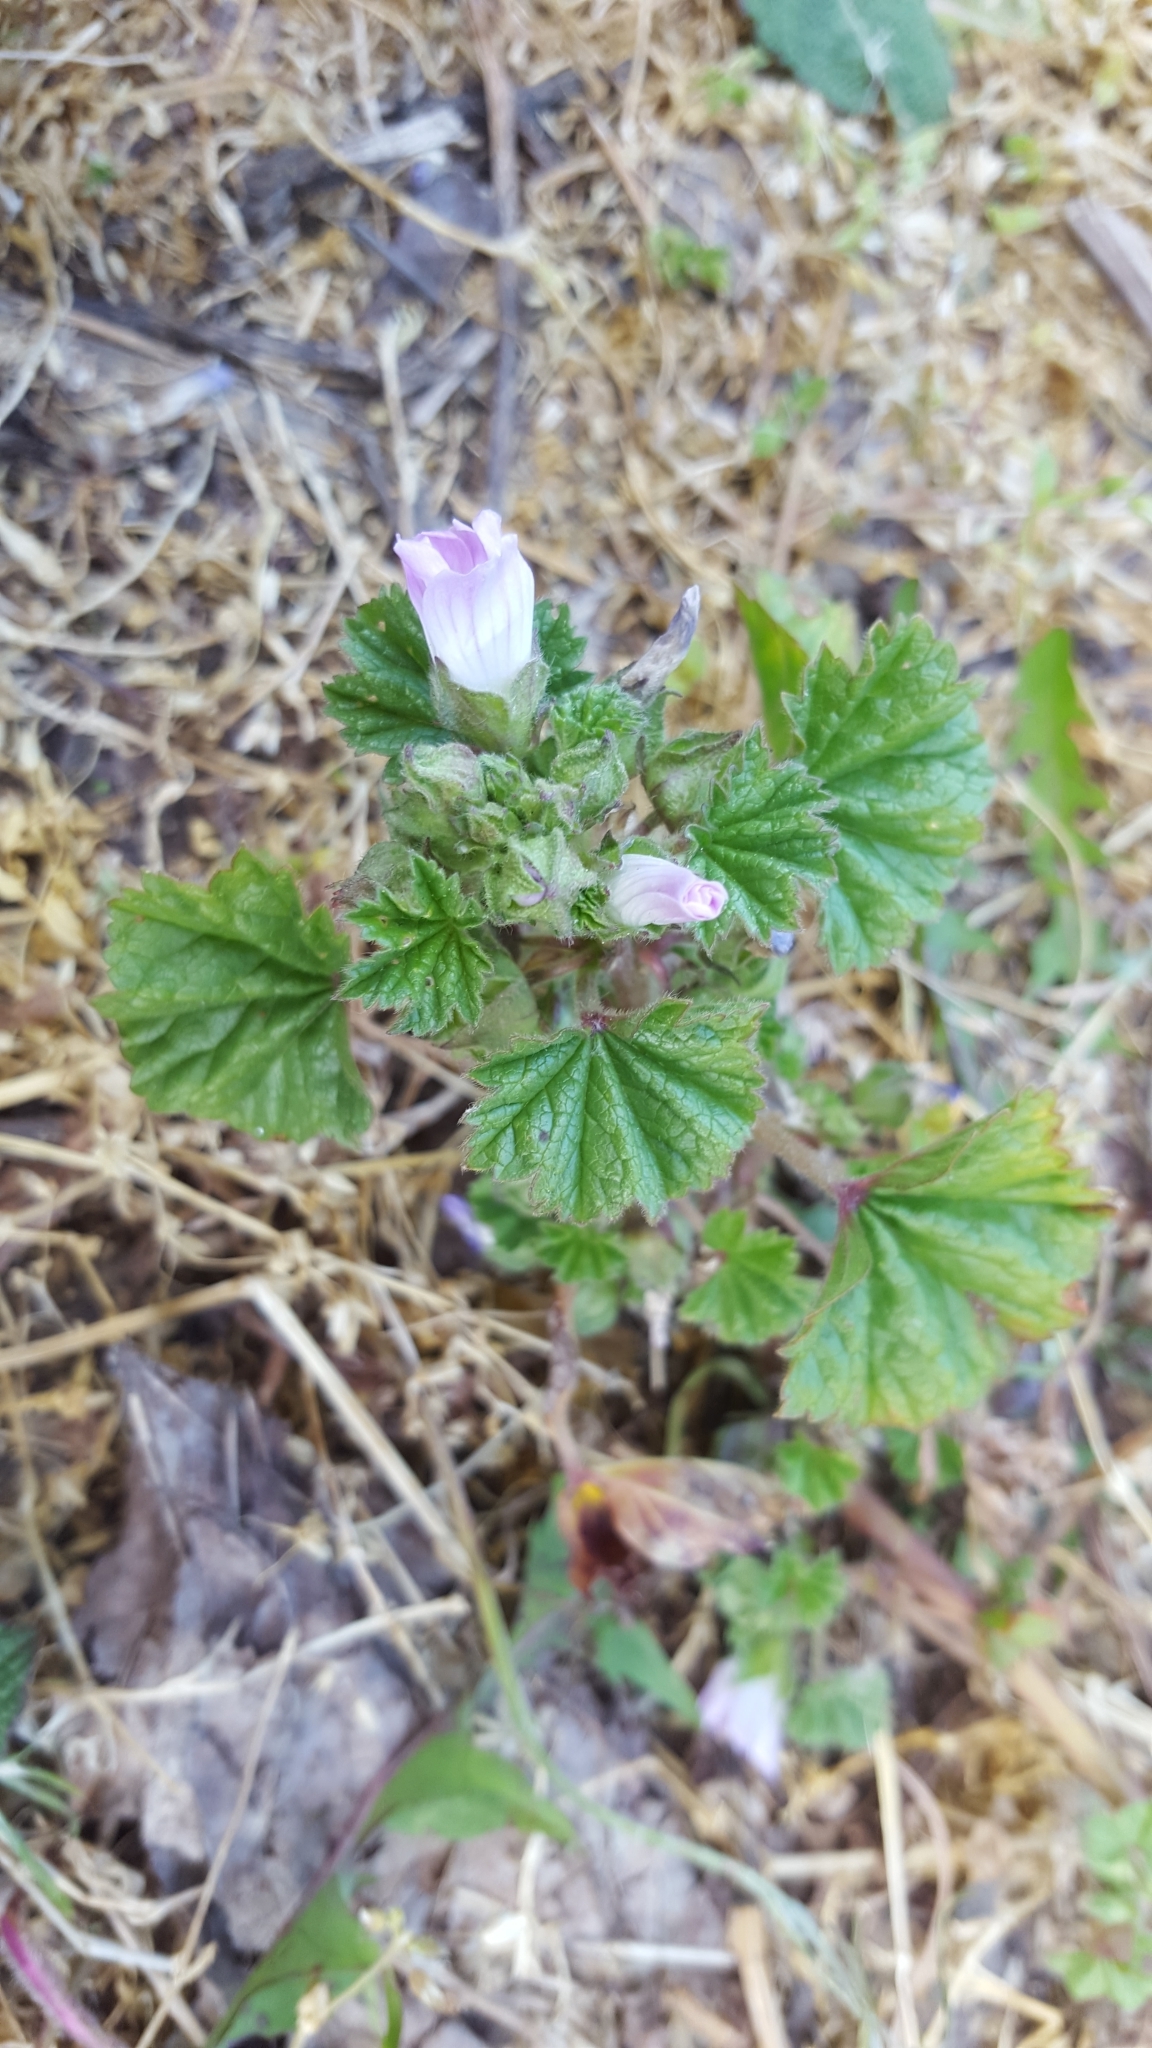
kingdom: Plantae
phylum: Tracheophyta
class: Magnoliopsida
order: Malvales
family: Malvaceae
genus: Malva
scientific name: Malva neglecta
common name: Common mallow
